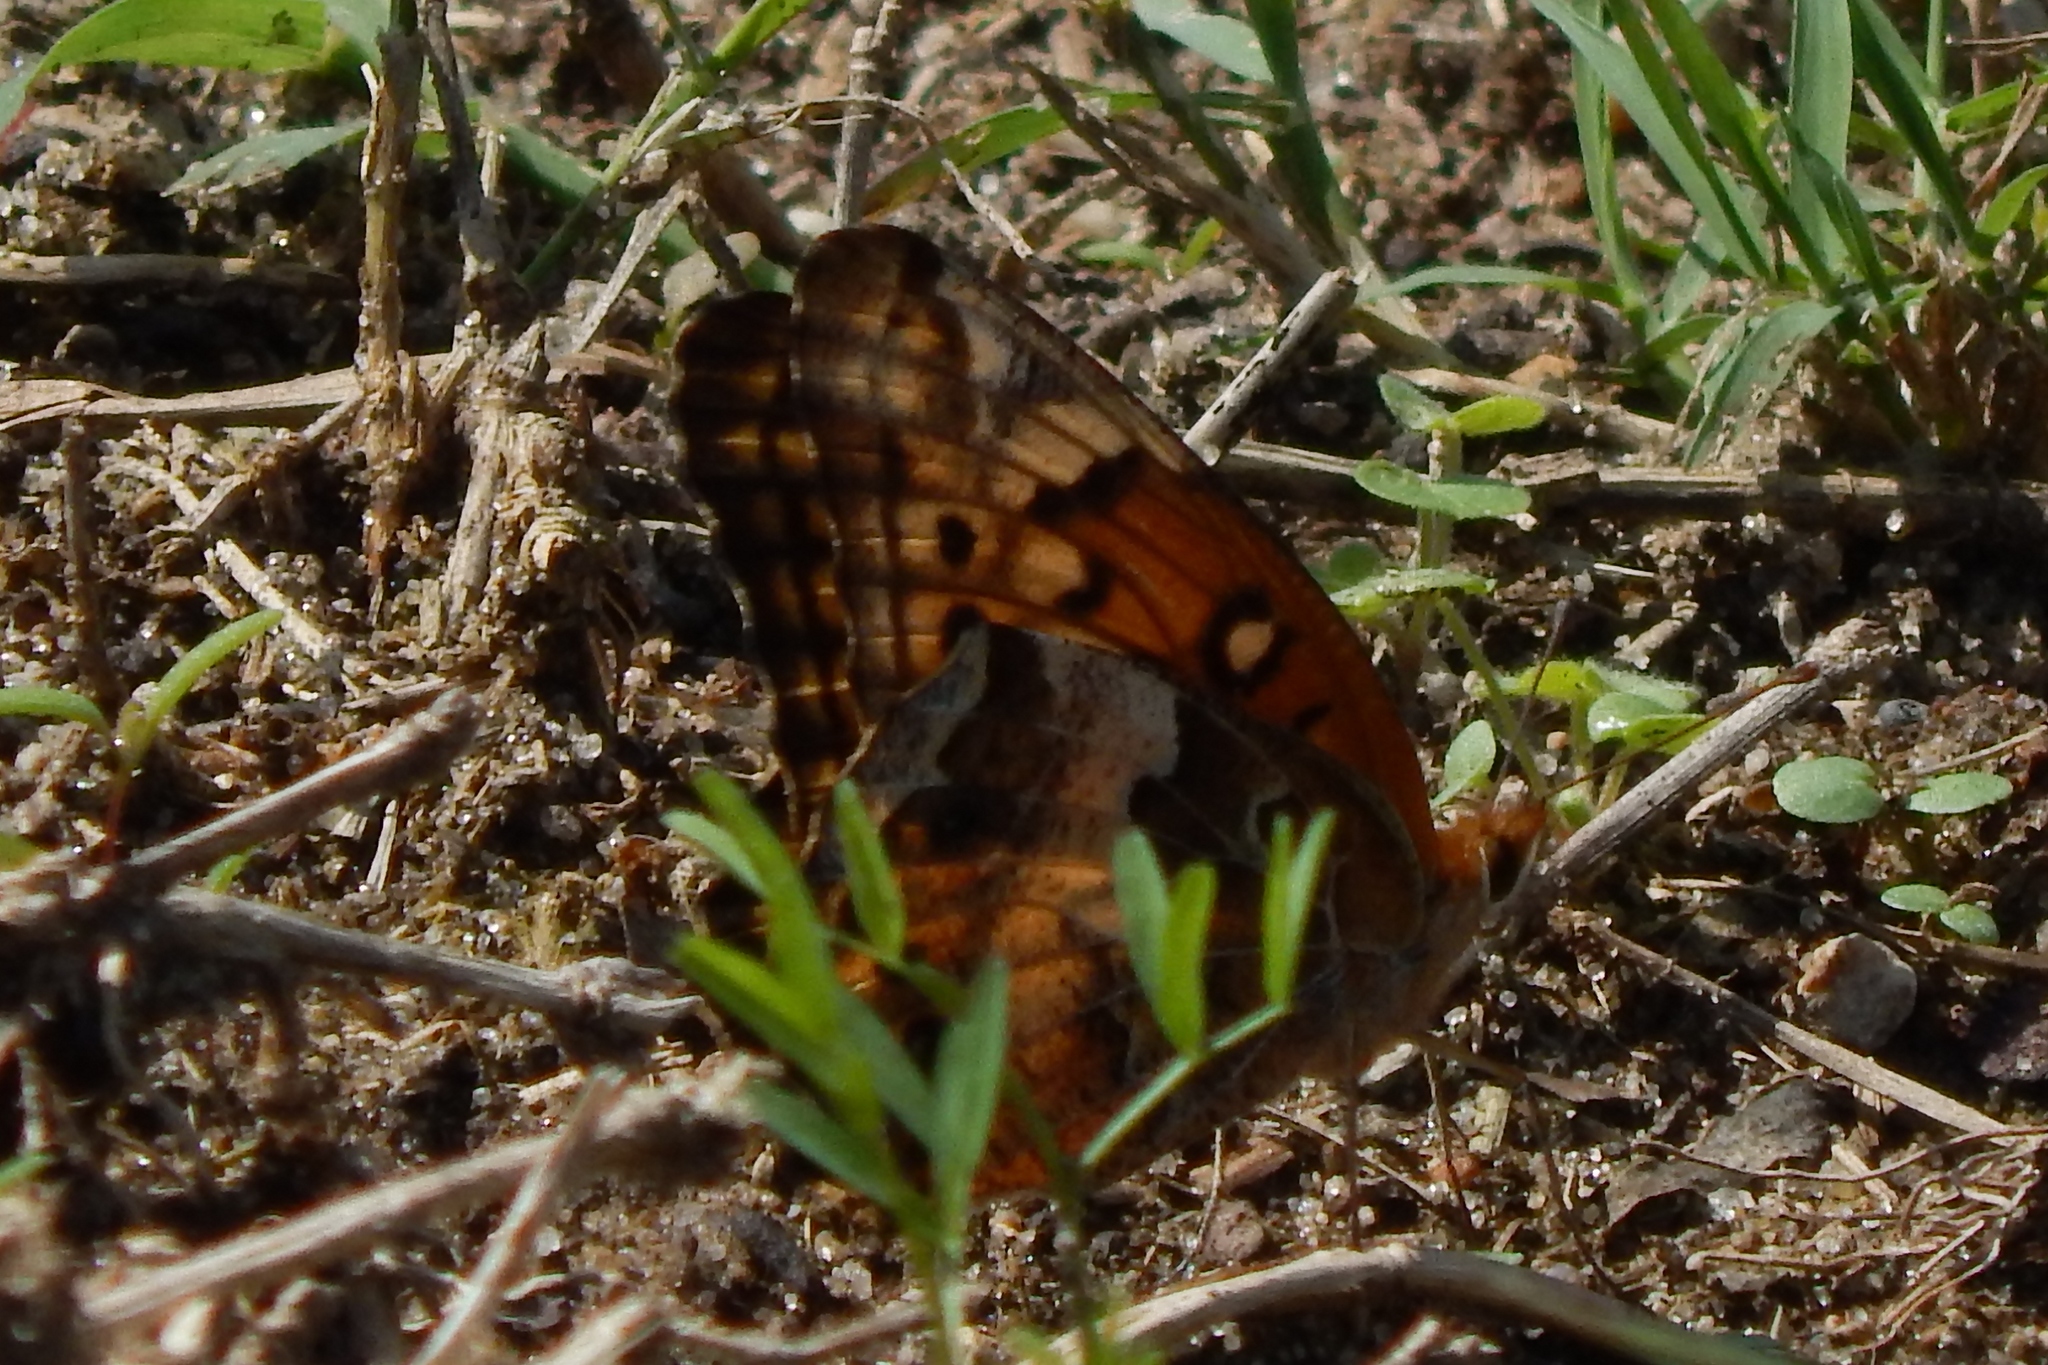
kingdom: Animalia
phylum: Arthropoda
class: Insecta
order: Lepidoptera
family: Nymphalidae
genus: Euptoieta
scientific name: Euptoieta claudia
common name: Variegated fritillary
